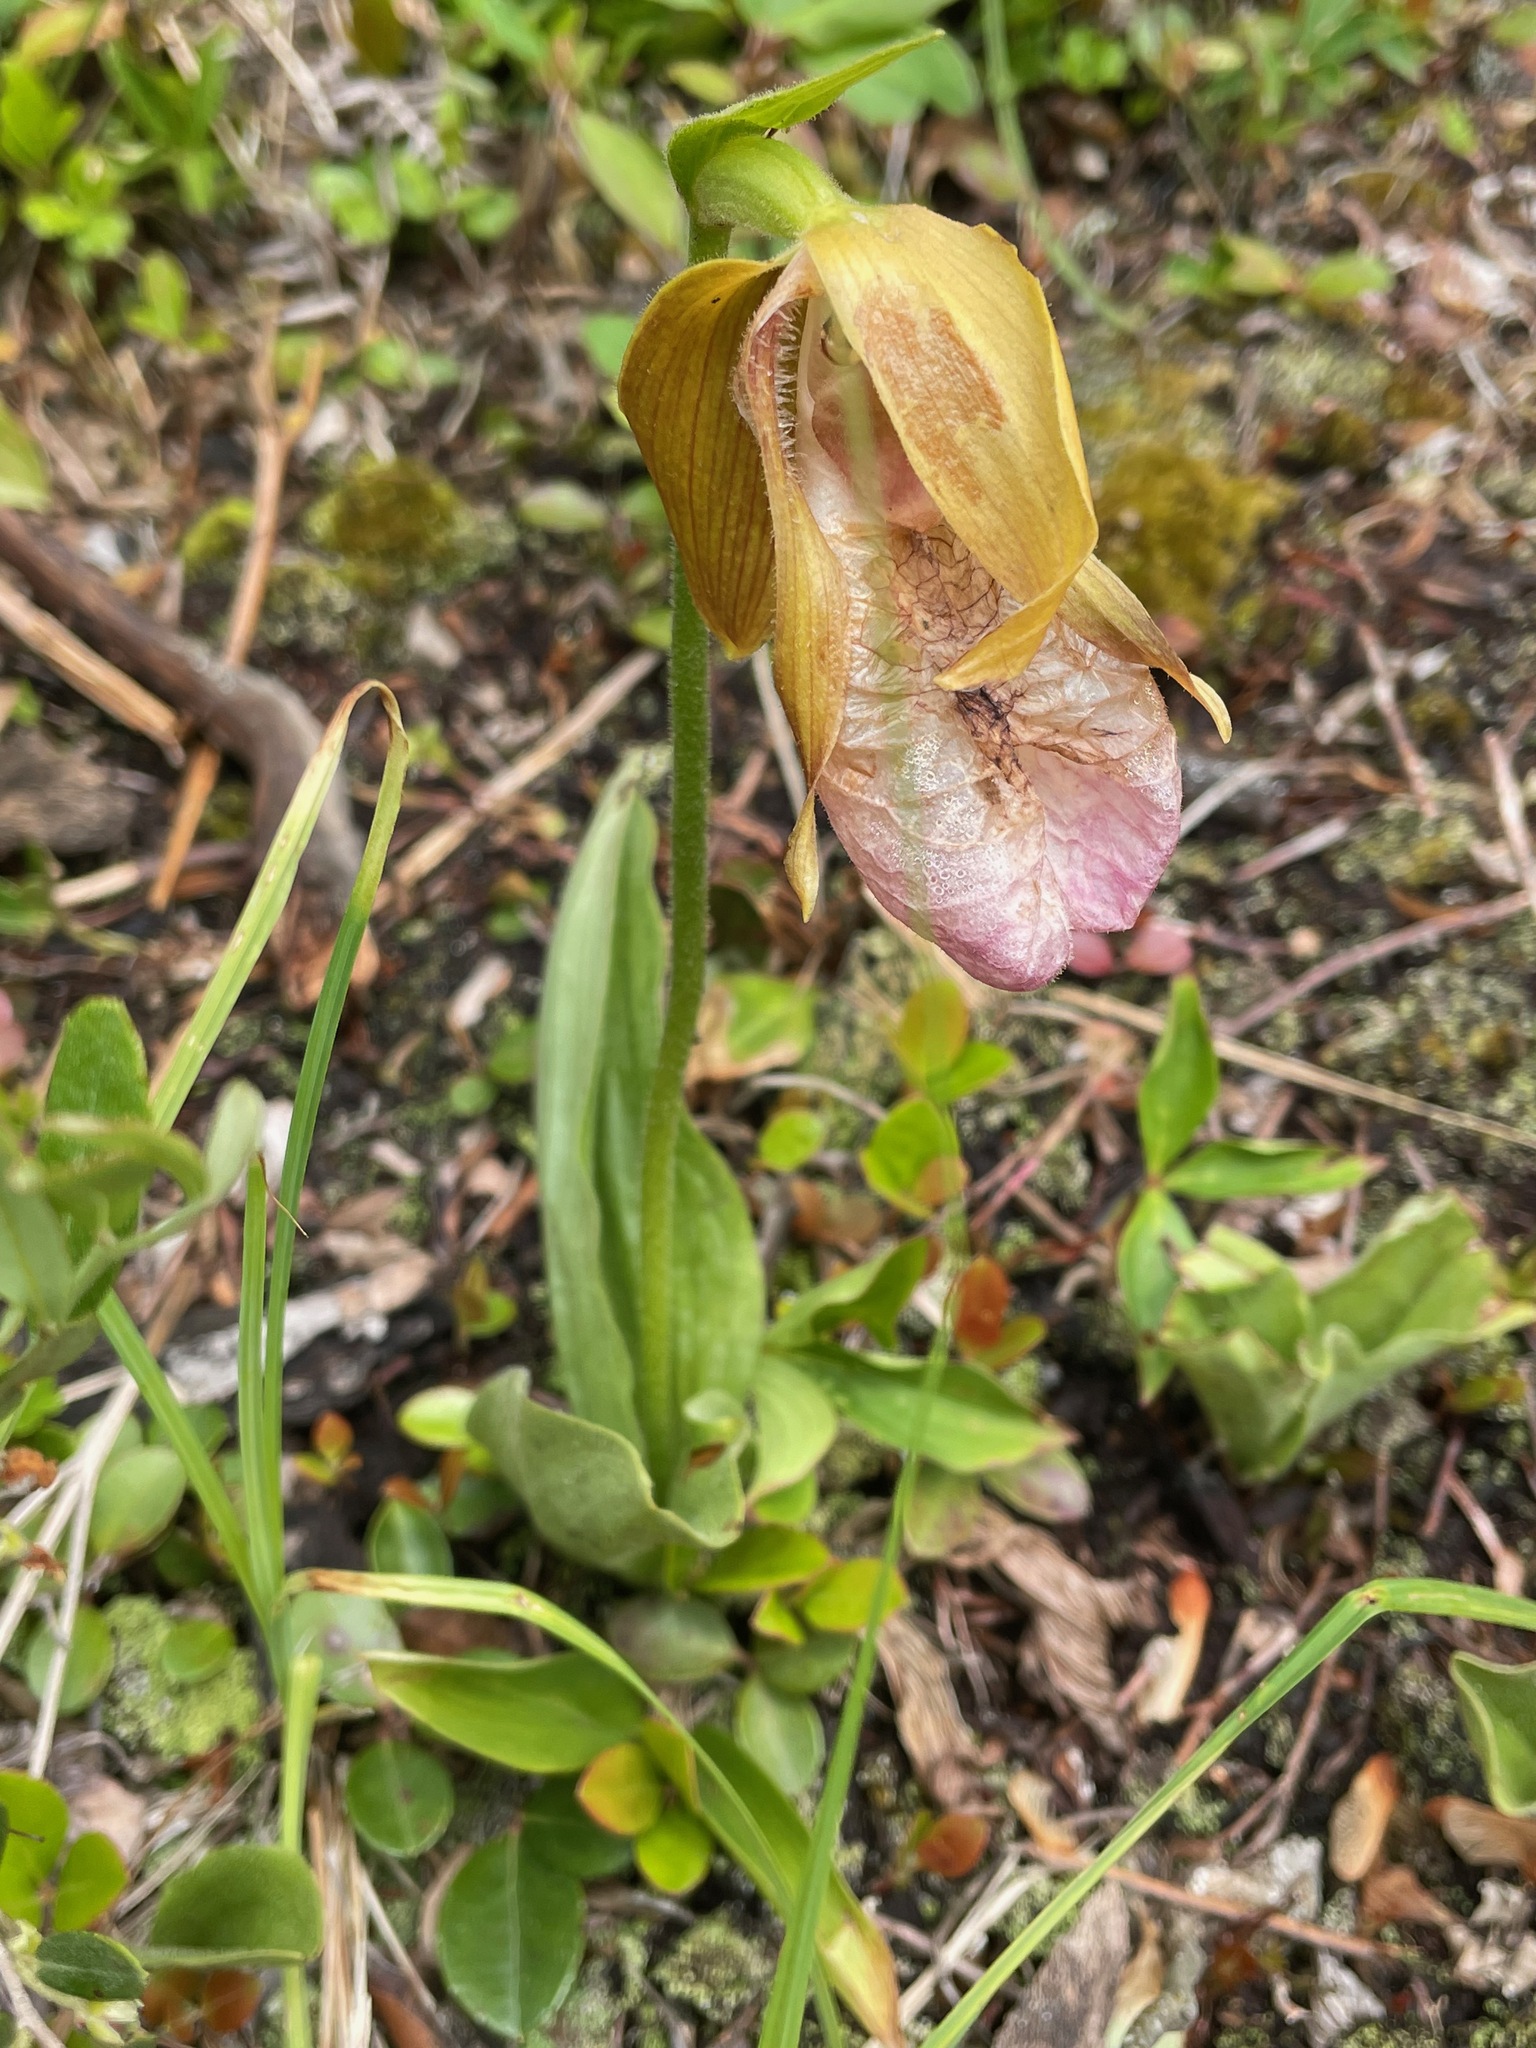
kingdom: Plantae
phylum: Tracheophyta
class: Liliopsida
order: Asparagales
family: Orchidaceae
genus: Cypripedium
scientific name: Cypripedium acaule
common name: Pink lady's-slipper
